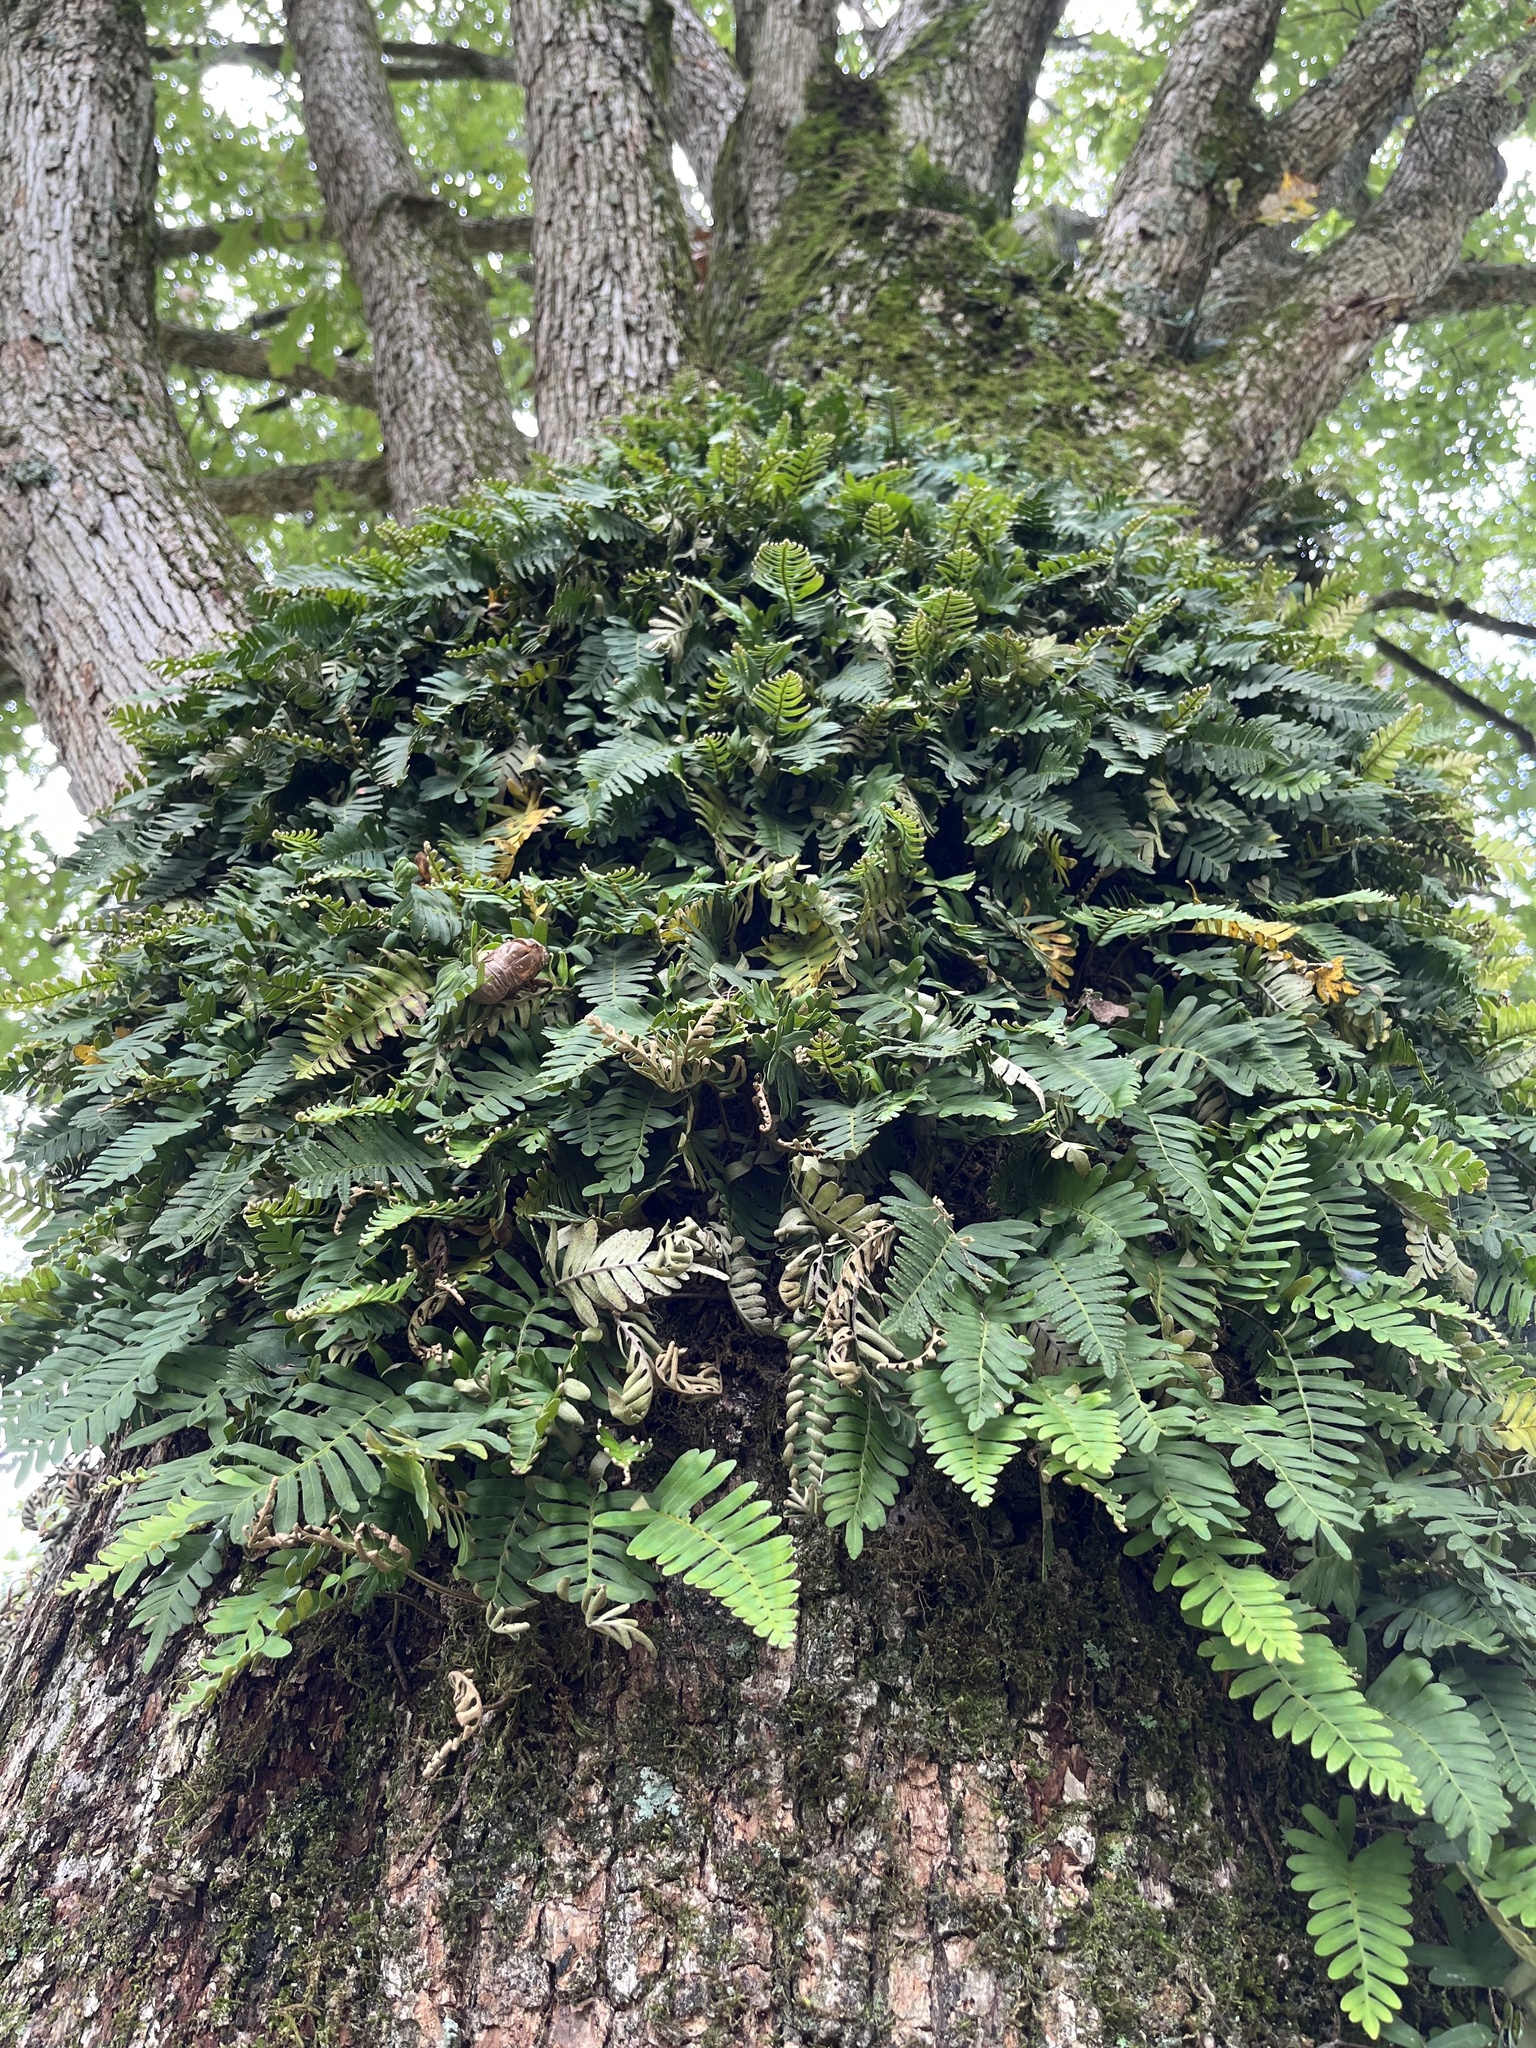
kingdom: Plantae
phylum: Tracheophyta
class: Polypodiopsida
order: Polypodiales
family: Polypodiaceae
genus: Pleopeltis
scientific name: Pleopeltis michauxiana
